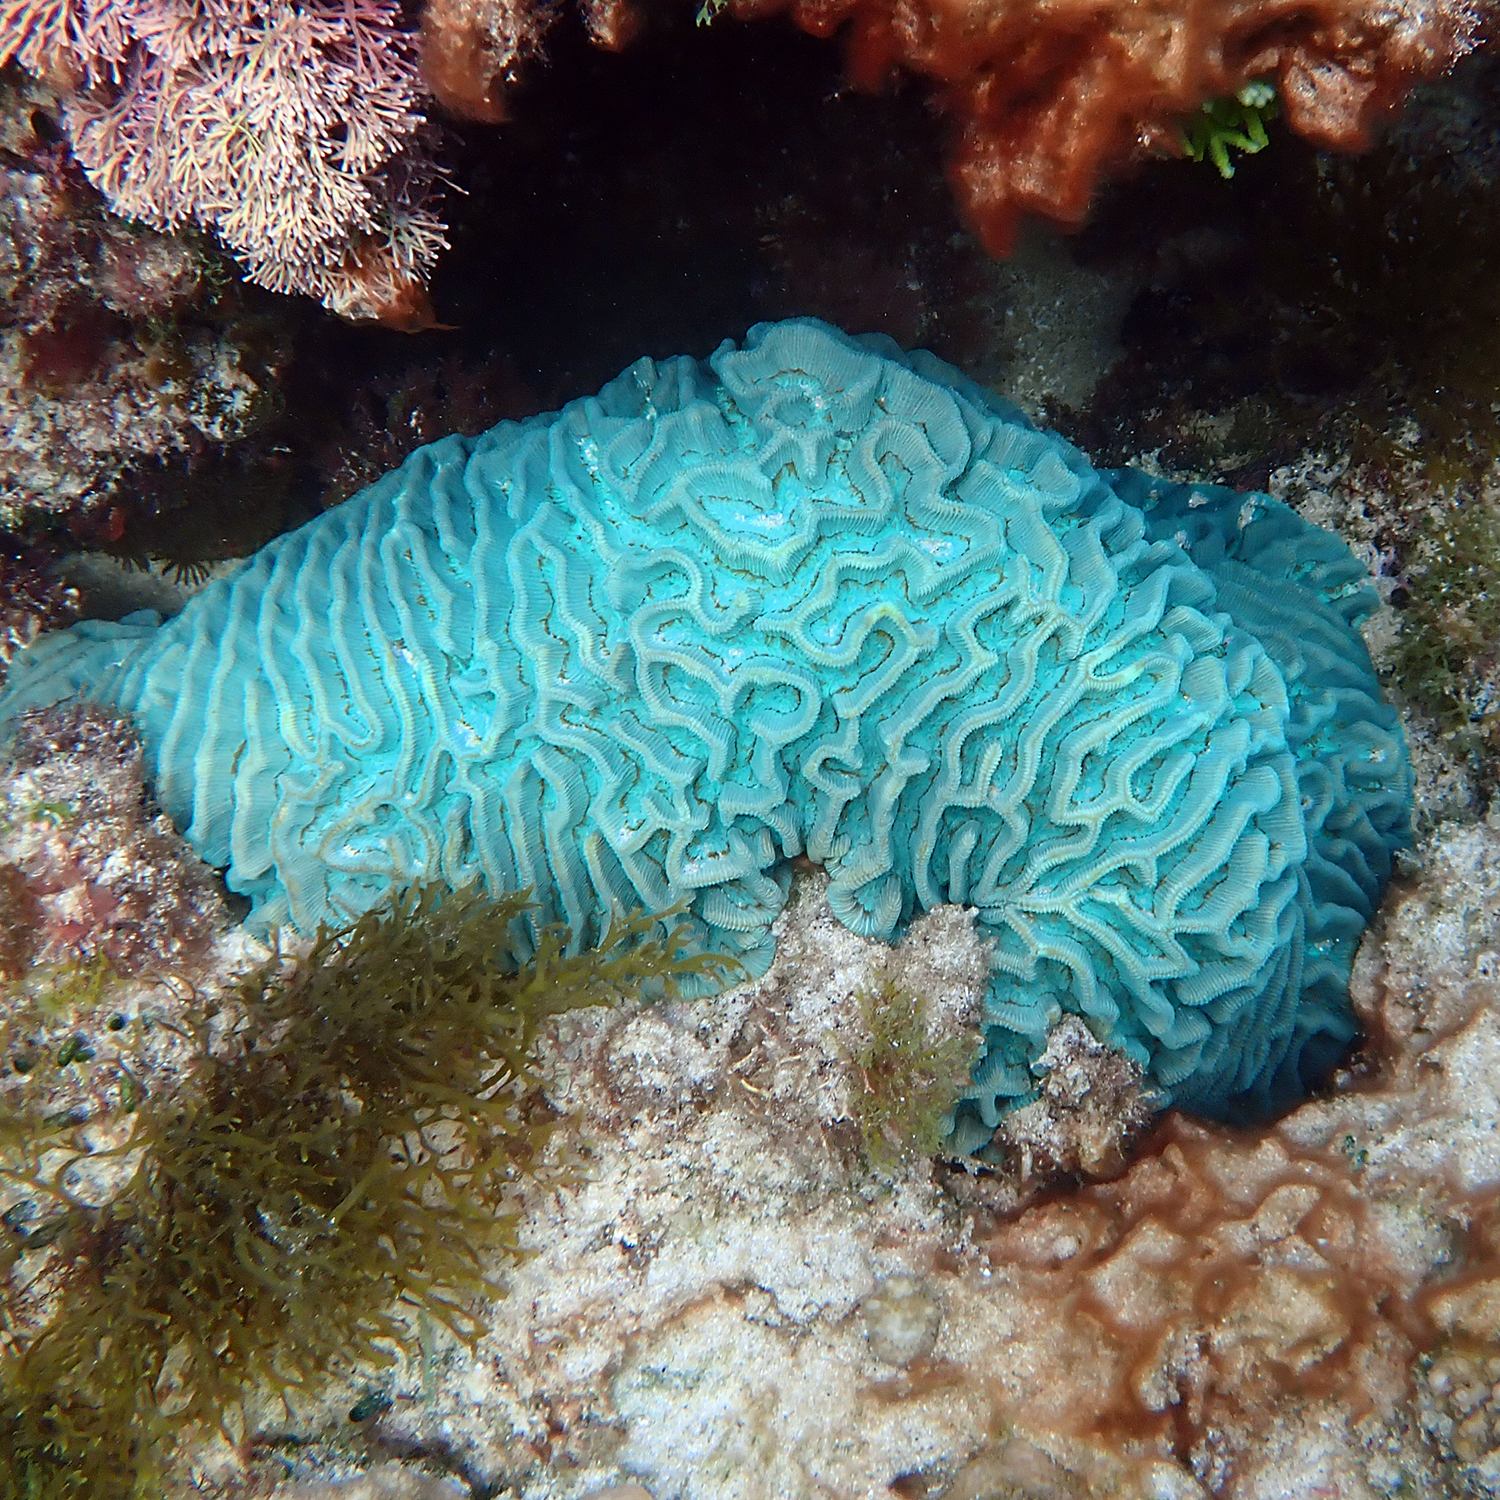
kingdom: Animalia
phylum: Cnidaria
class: Anthozoa
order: Scleractinia
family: Merulinidae
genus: Paragoniastrea
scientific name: Paragoniastrea australensis
